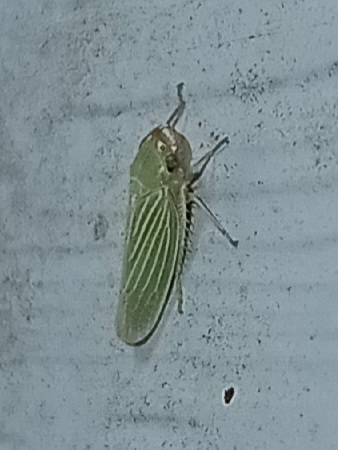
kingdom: Animalia
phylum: Arthropoda
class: Insecta
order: Hemiptera
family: Cicadellidae
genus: Xyphon
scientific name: Xyphon flaviceps
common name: Yellowheaded leafhopper
